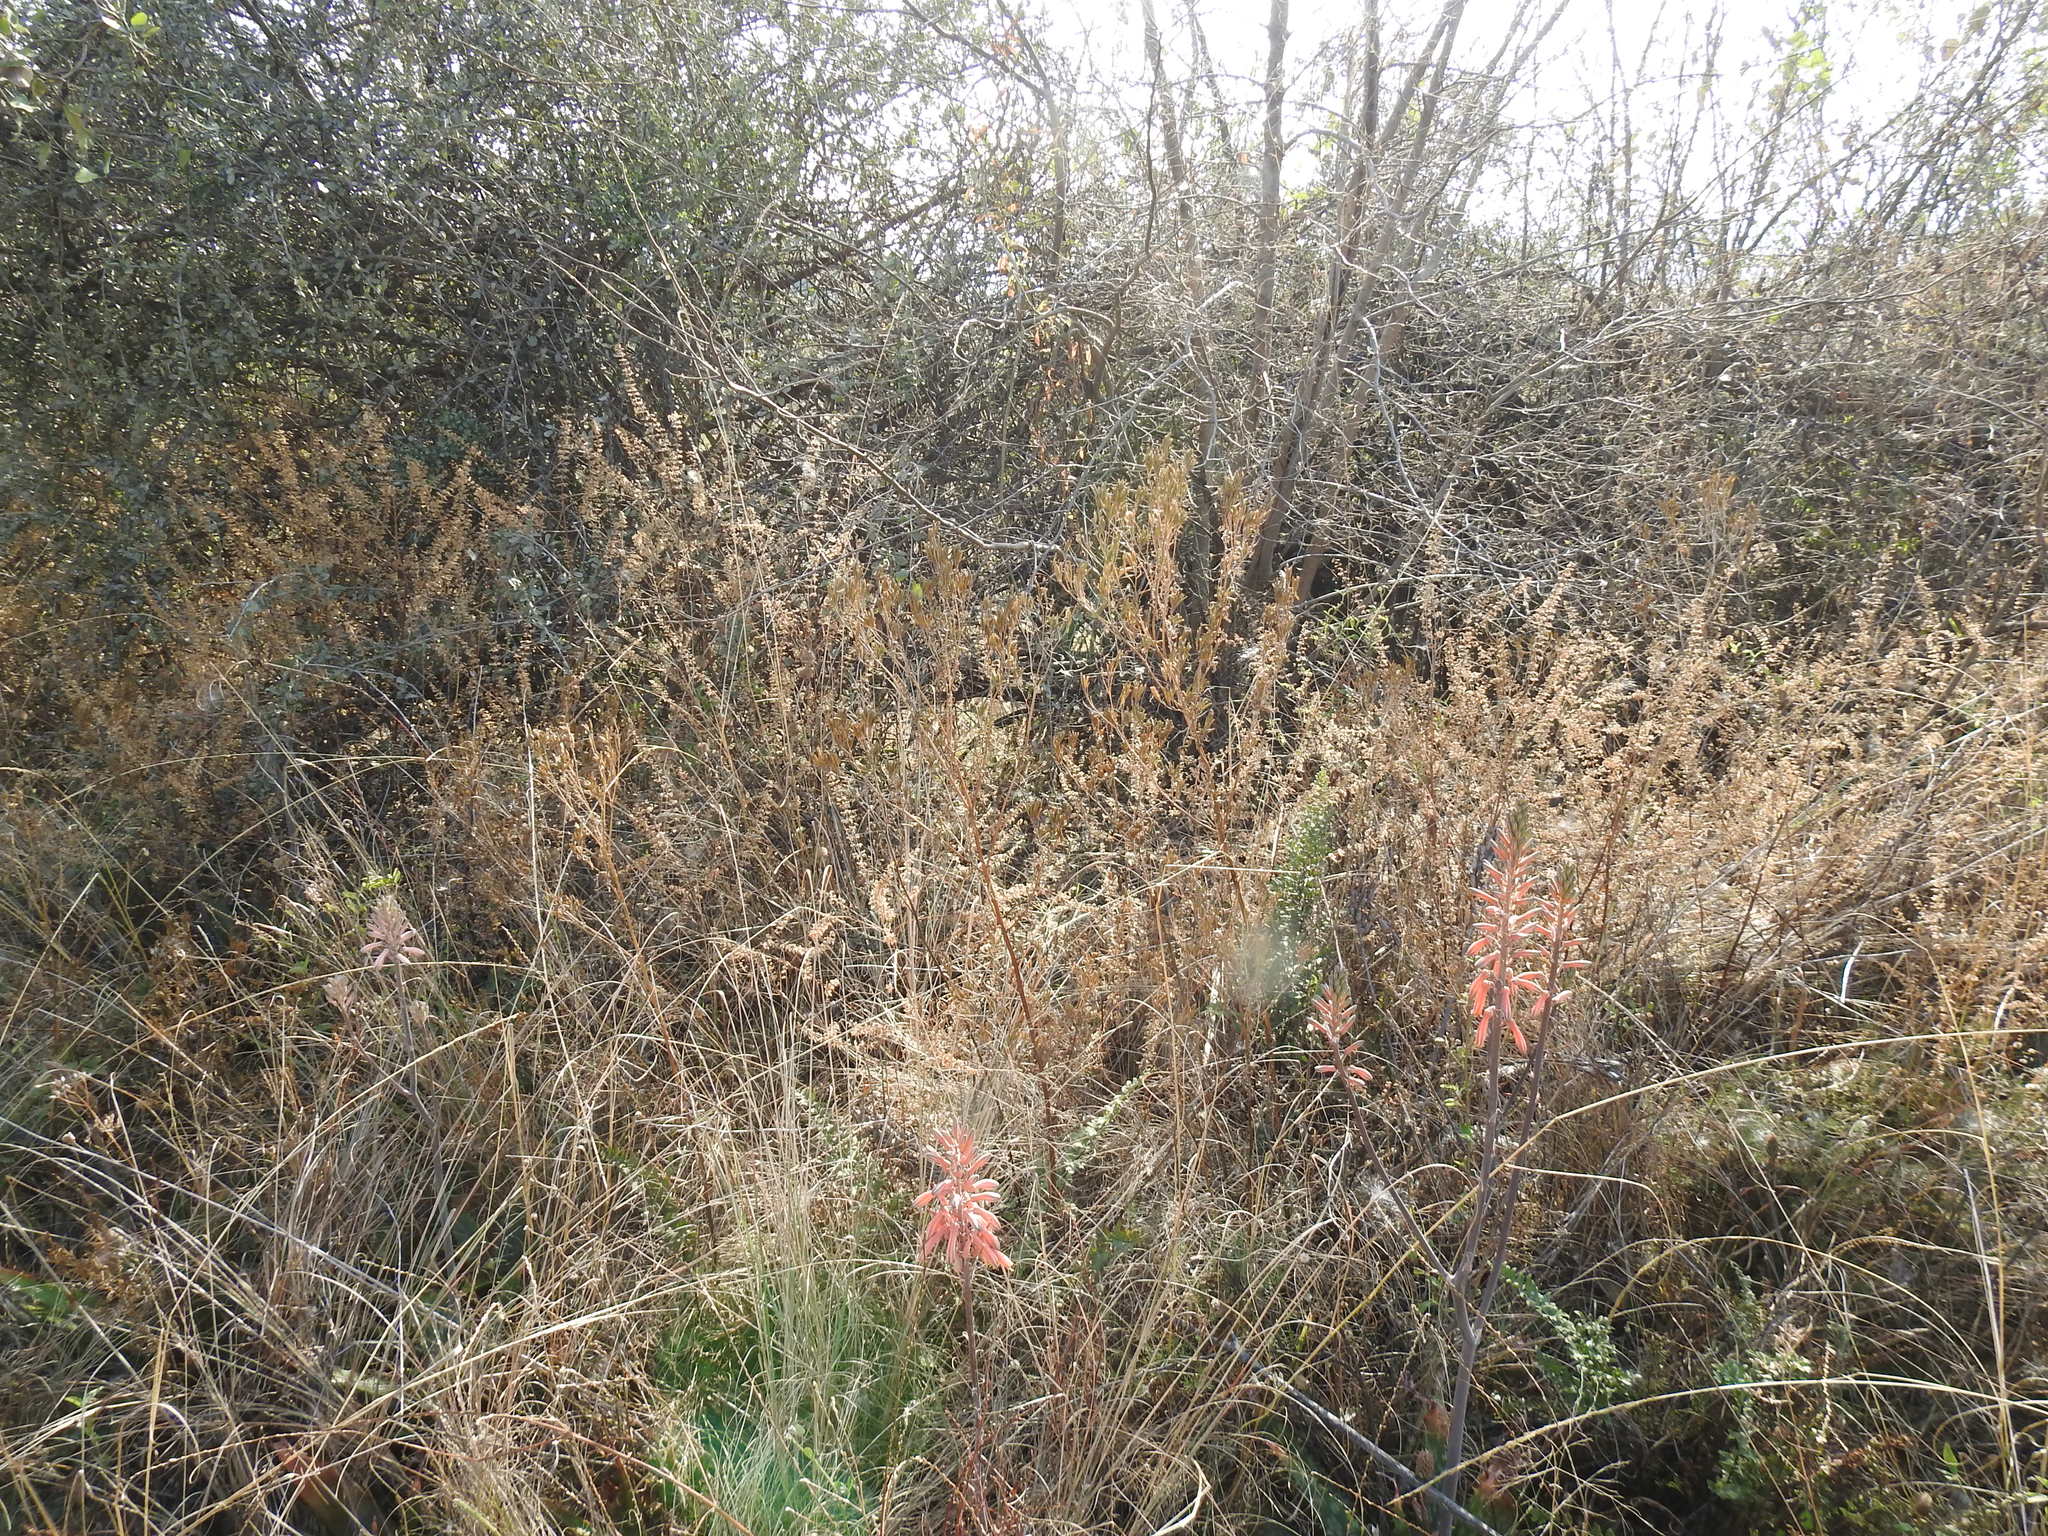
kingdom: Plantae
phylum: Tracheophyta
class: Magnoliopsida
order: Asterales
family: Asteraceae
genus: Tagetes
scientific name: Tagetes minuta
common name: Muster john henry
